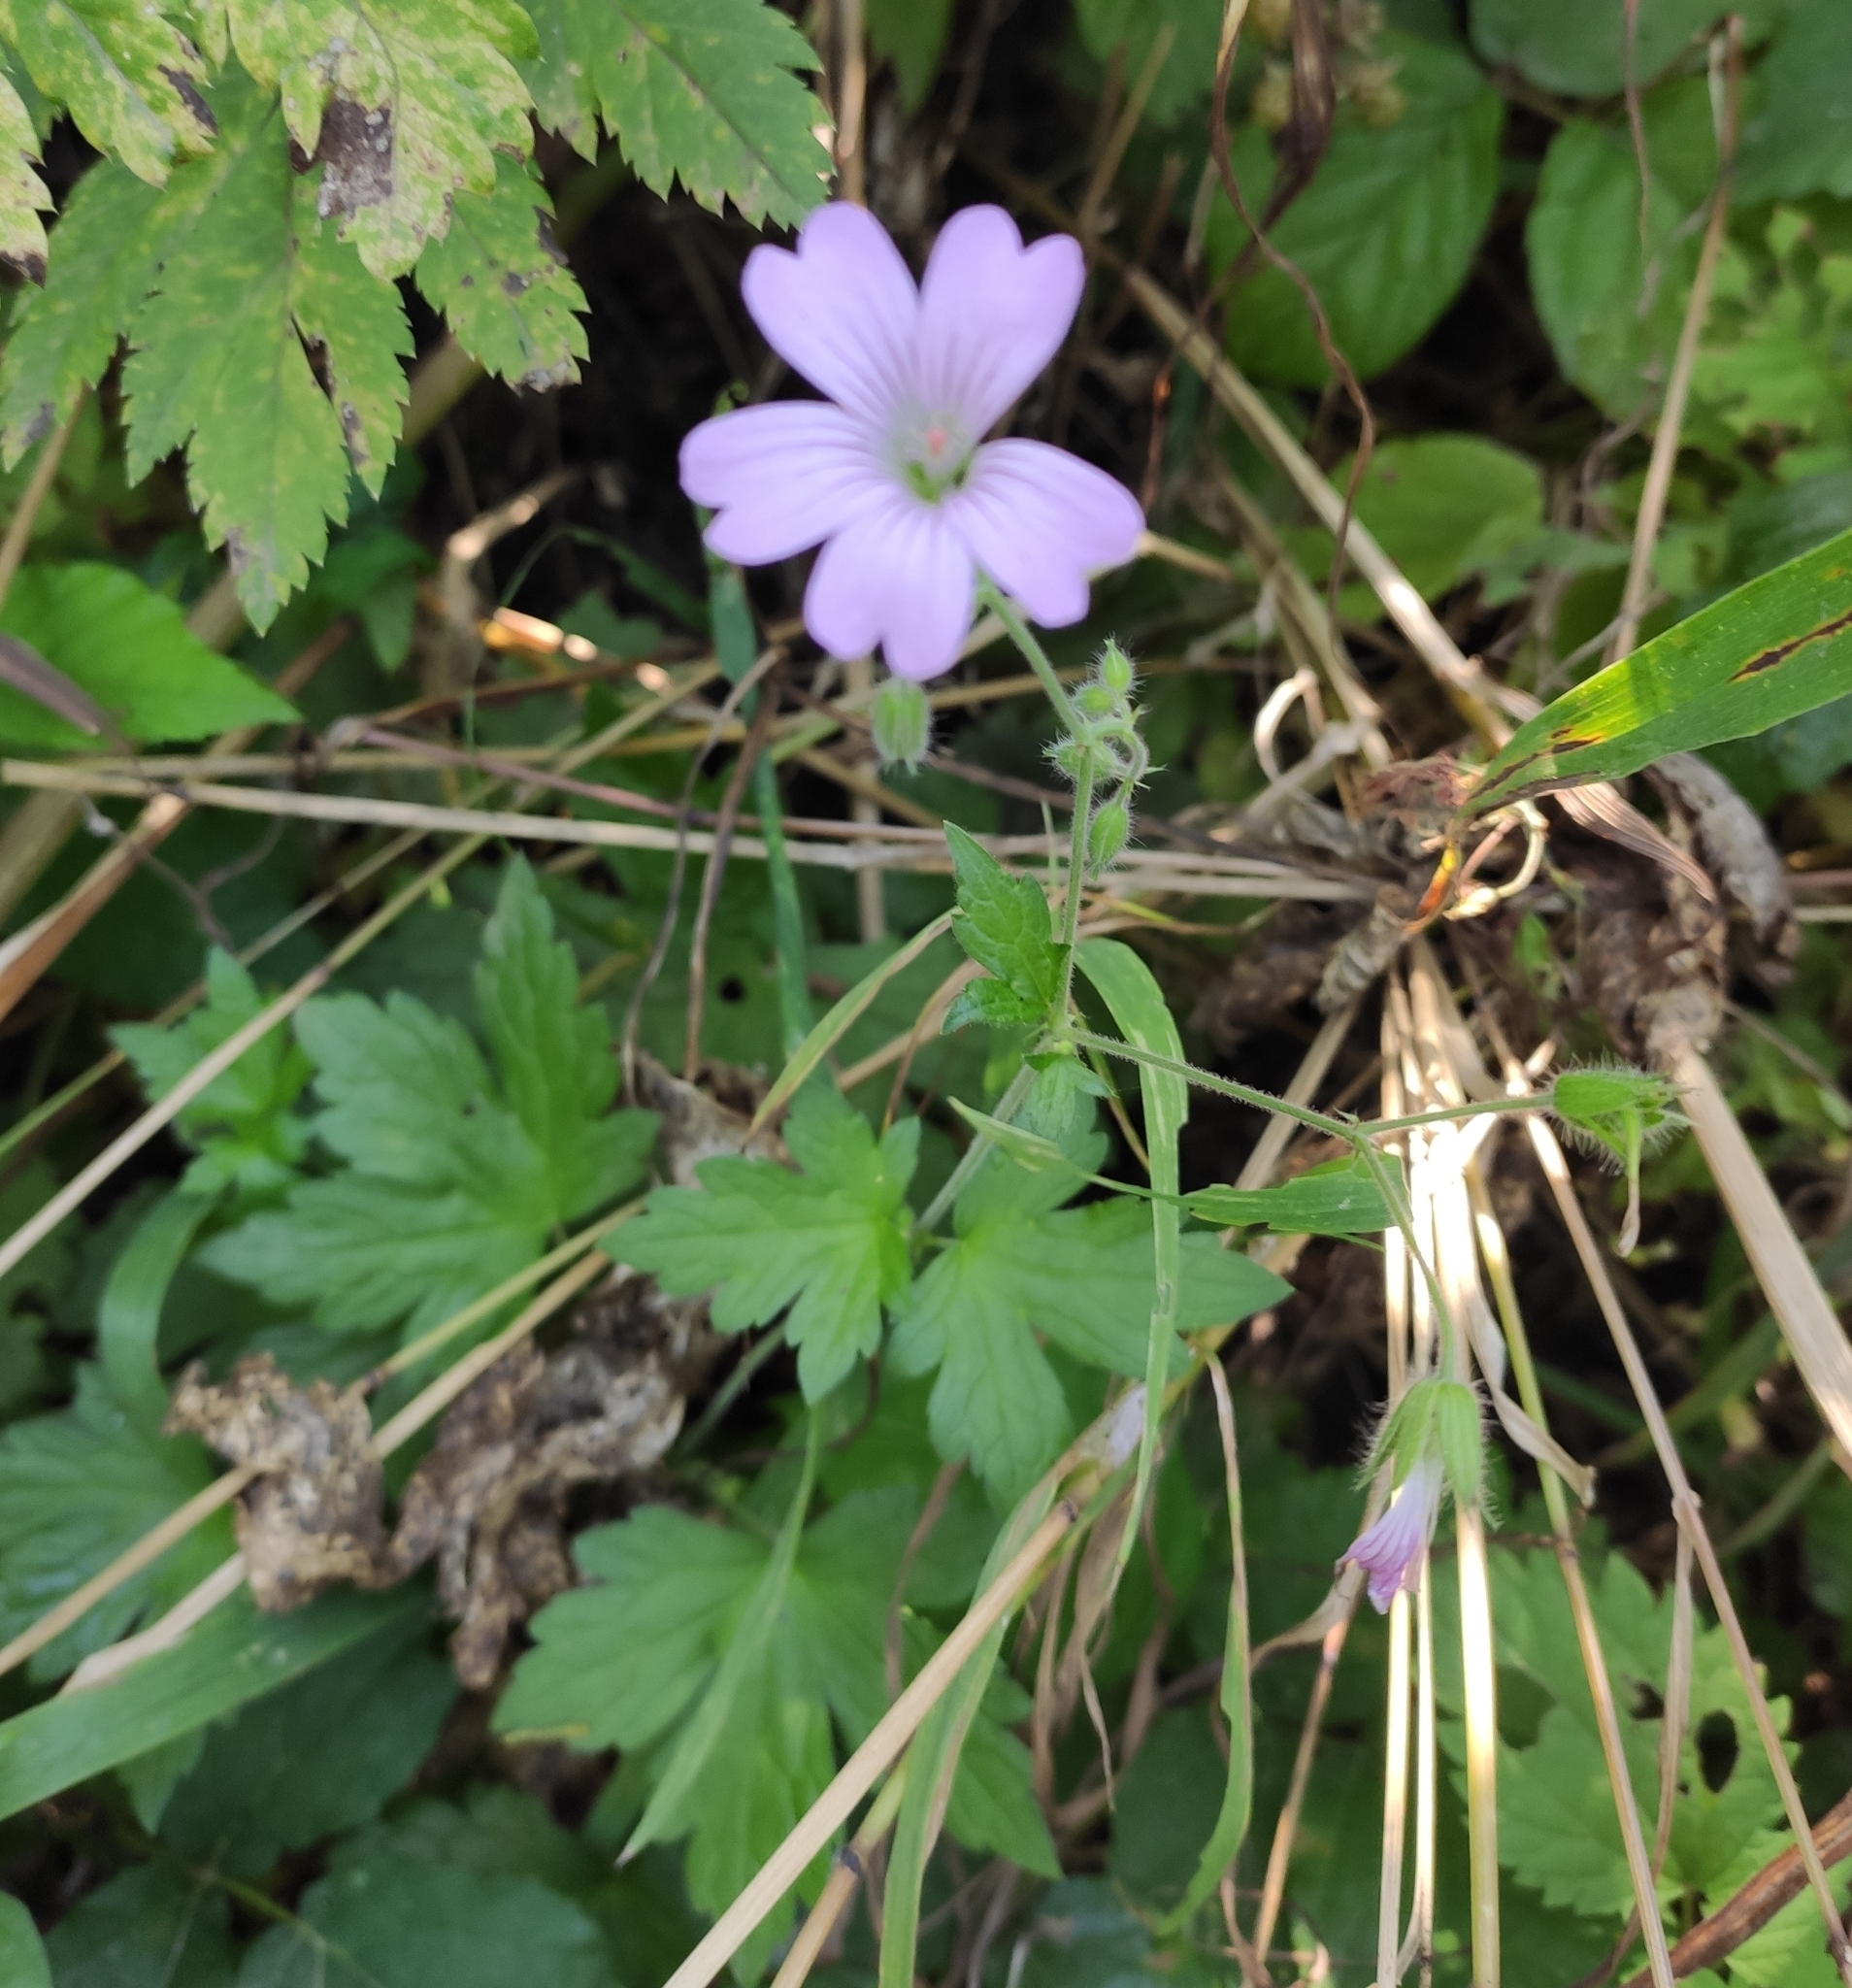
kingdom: Plantae
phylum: Tracheophyta
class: Magnoliopsida
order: Geraniales
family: Geraniaceae
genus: Geranium
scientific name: Geranium gracile
